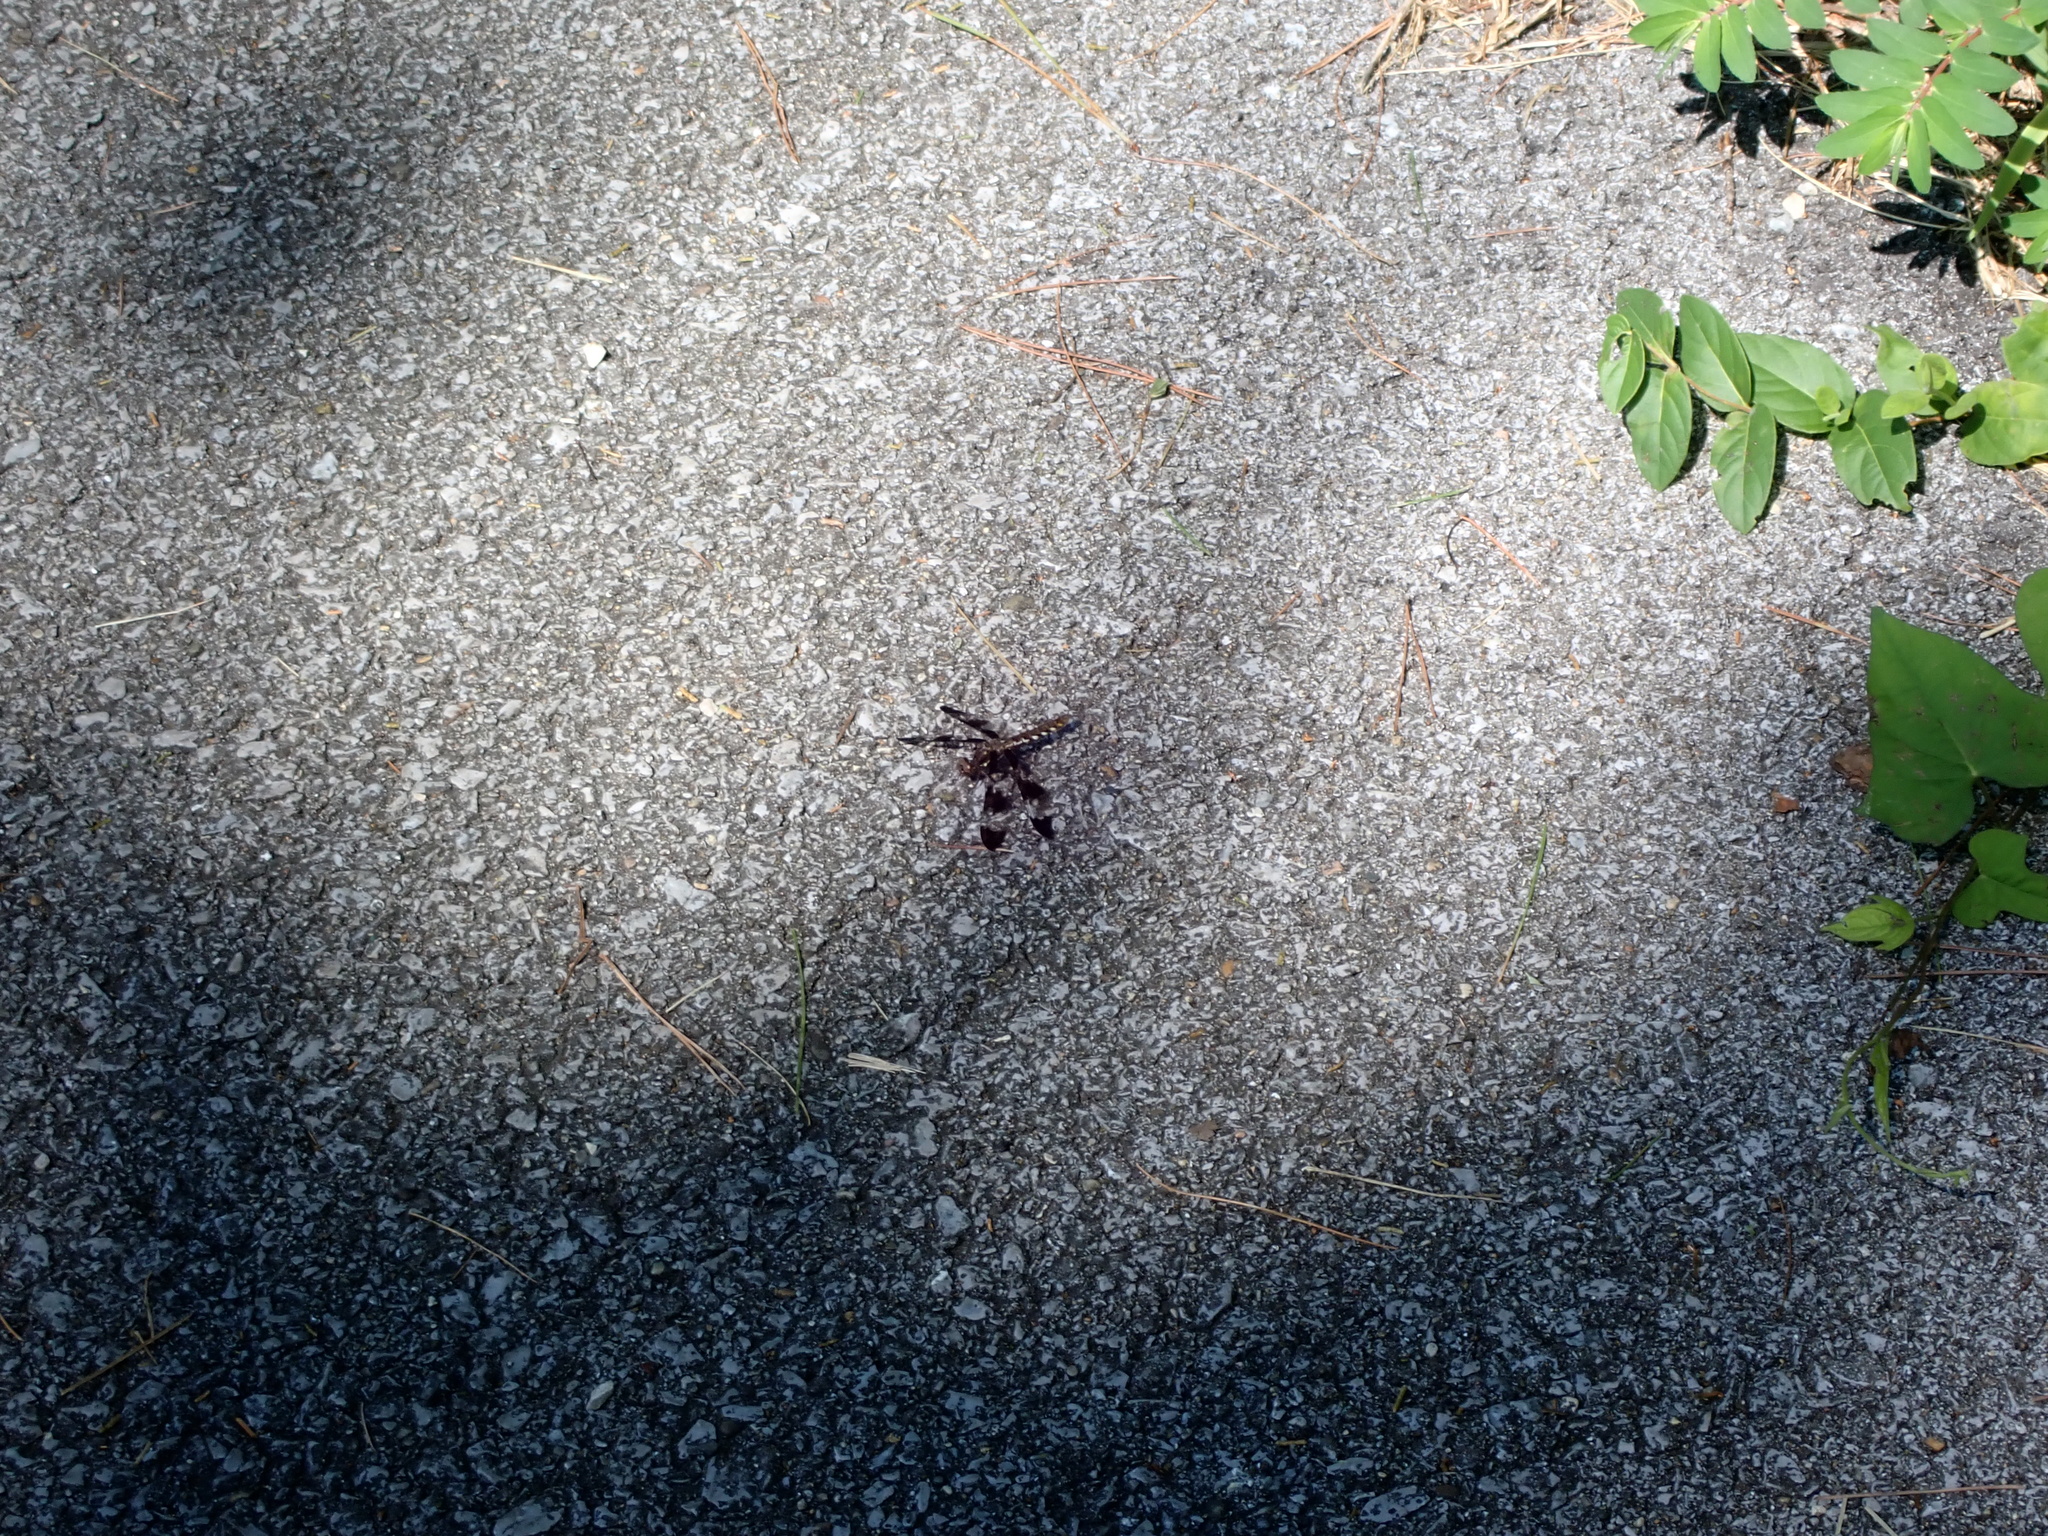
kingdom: Animalia
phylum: Arthropoda
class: Insecta
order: Odonata
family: Libellulidae
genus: Plathemis
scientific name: Plathemis lydia
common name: Common whitetail
